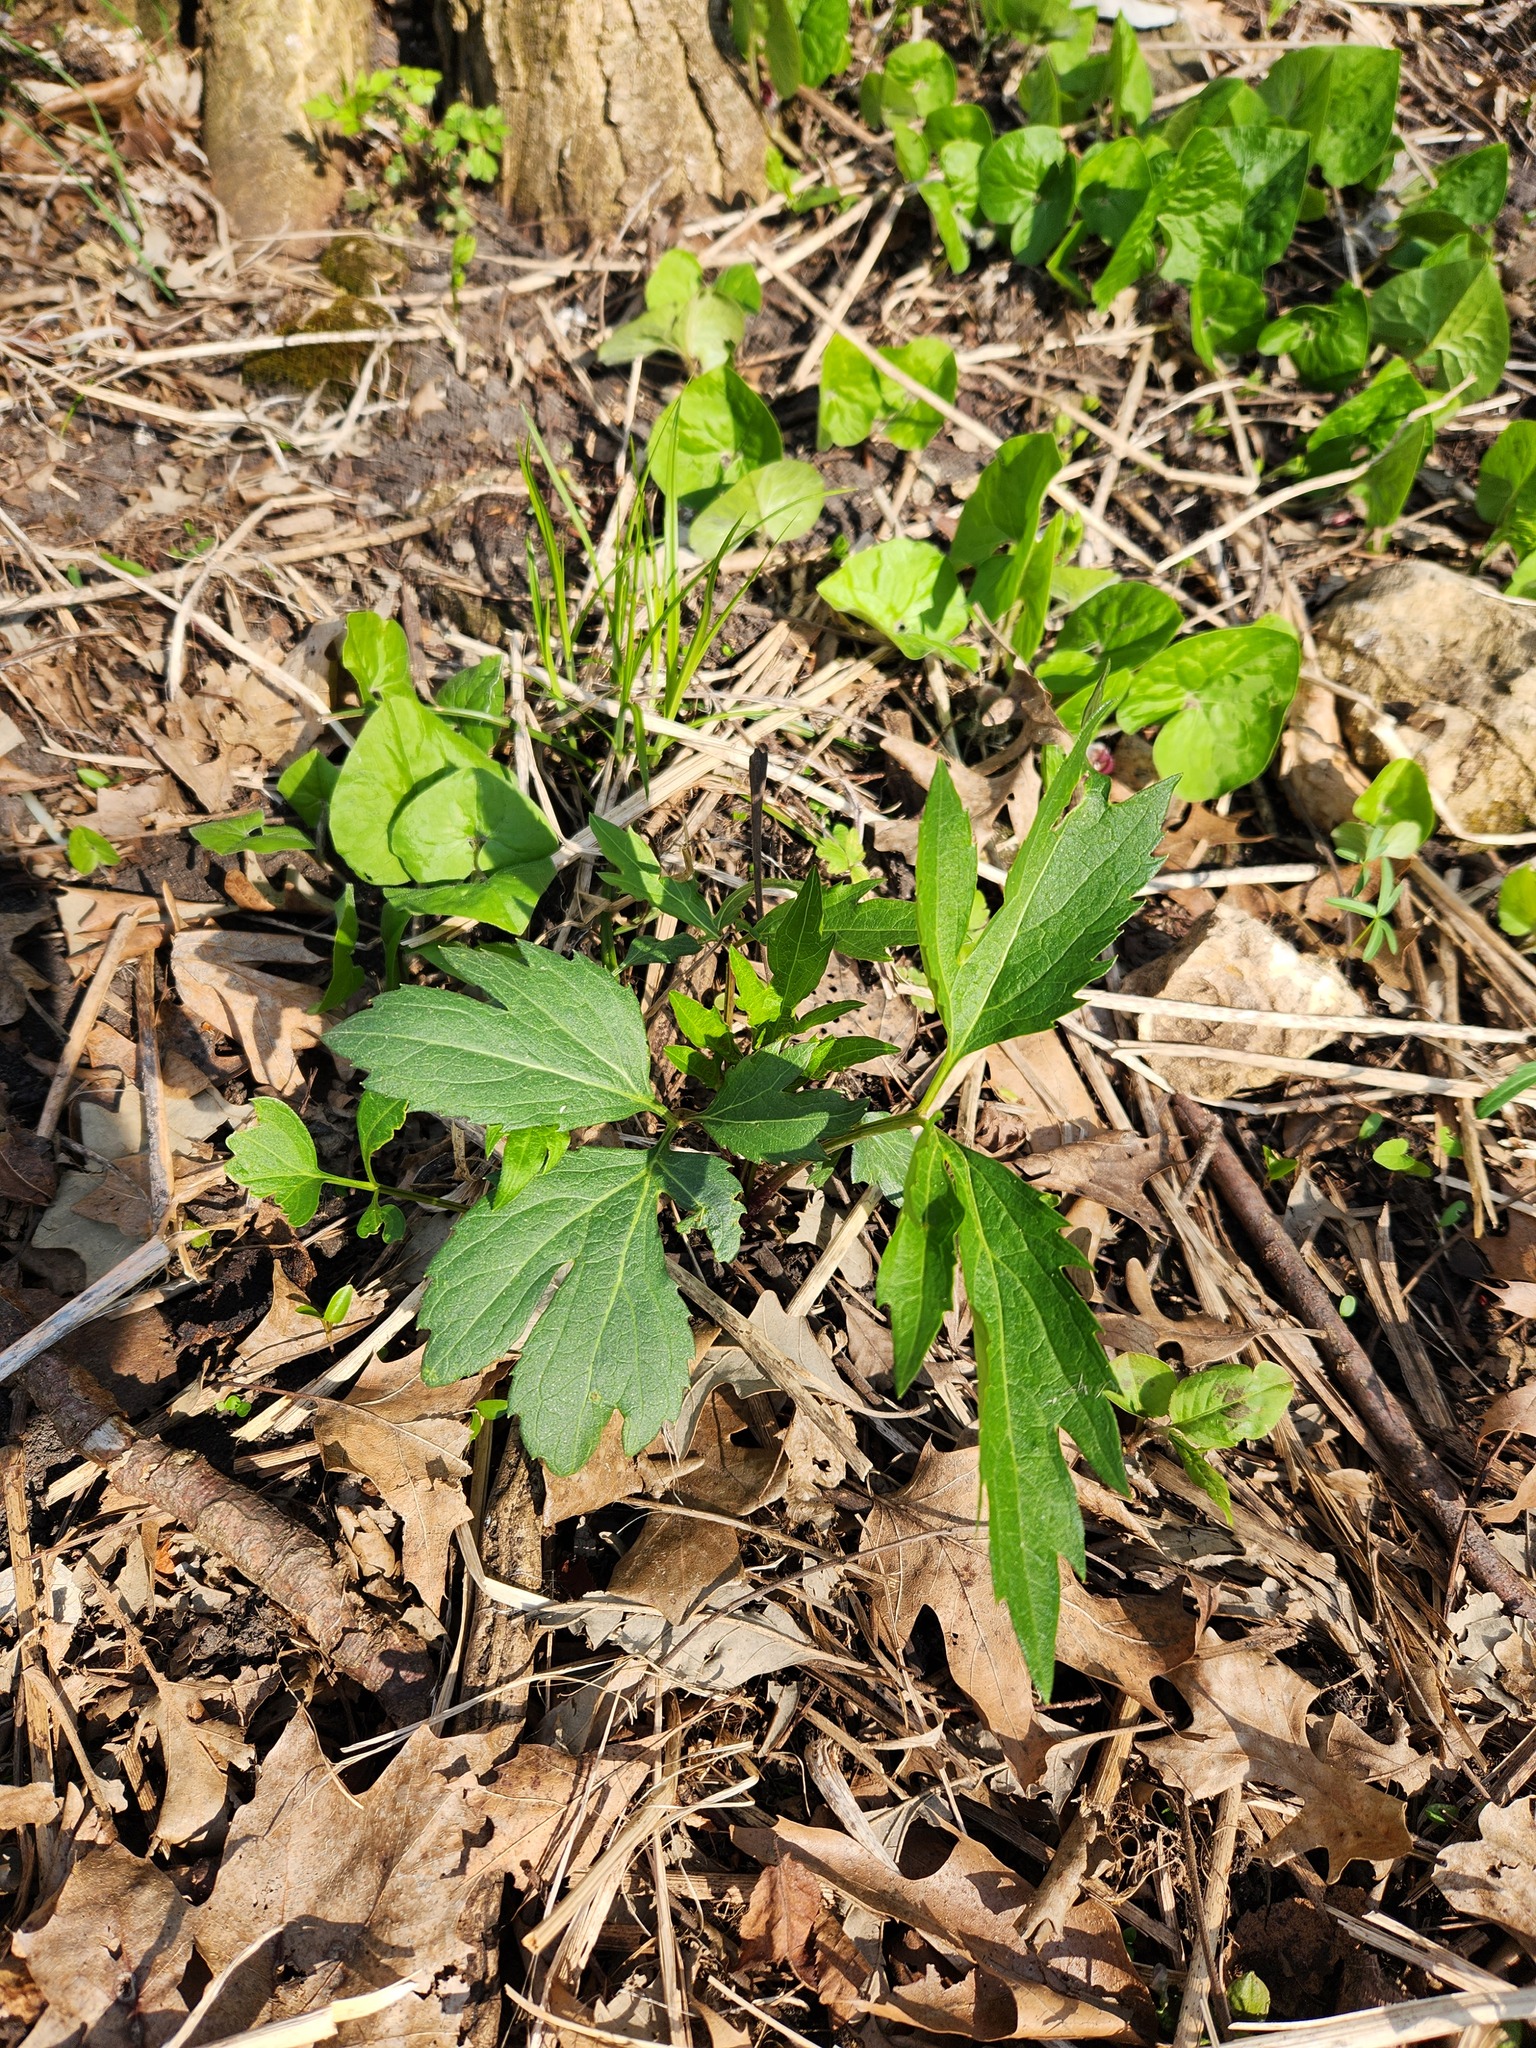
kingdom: Plantae
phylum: Tracheophyta
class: Magnoliopsida
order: Asterales
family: Asteraceae
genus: Rudbeckia
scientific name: Rudbeckia laciniata
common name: Coneflower
